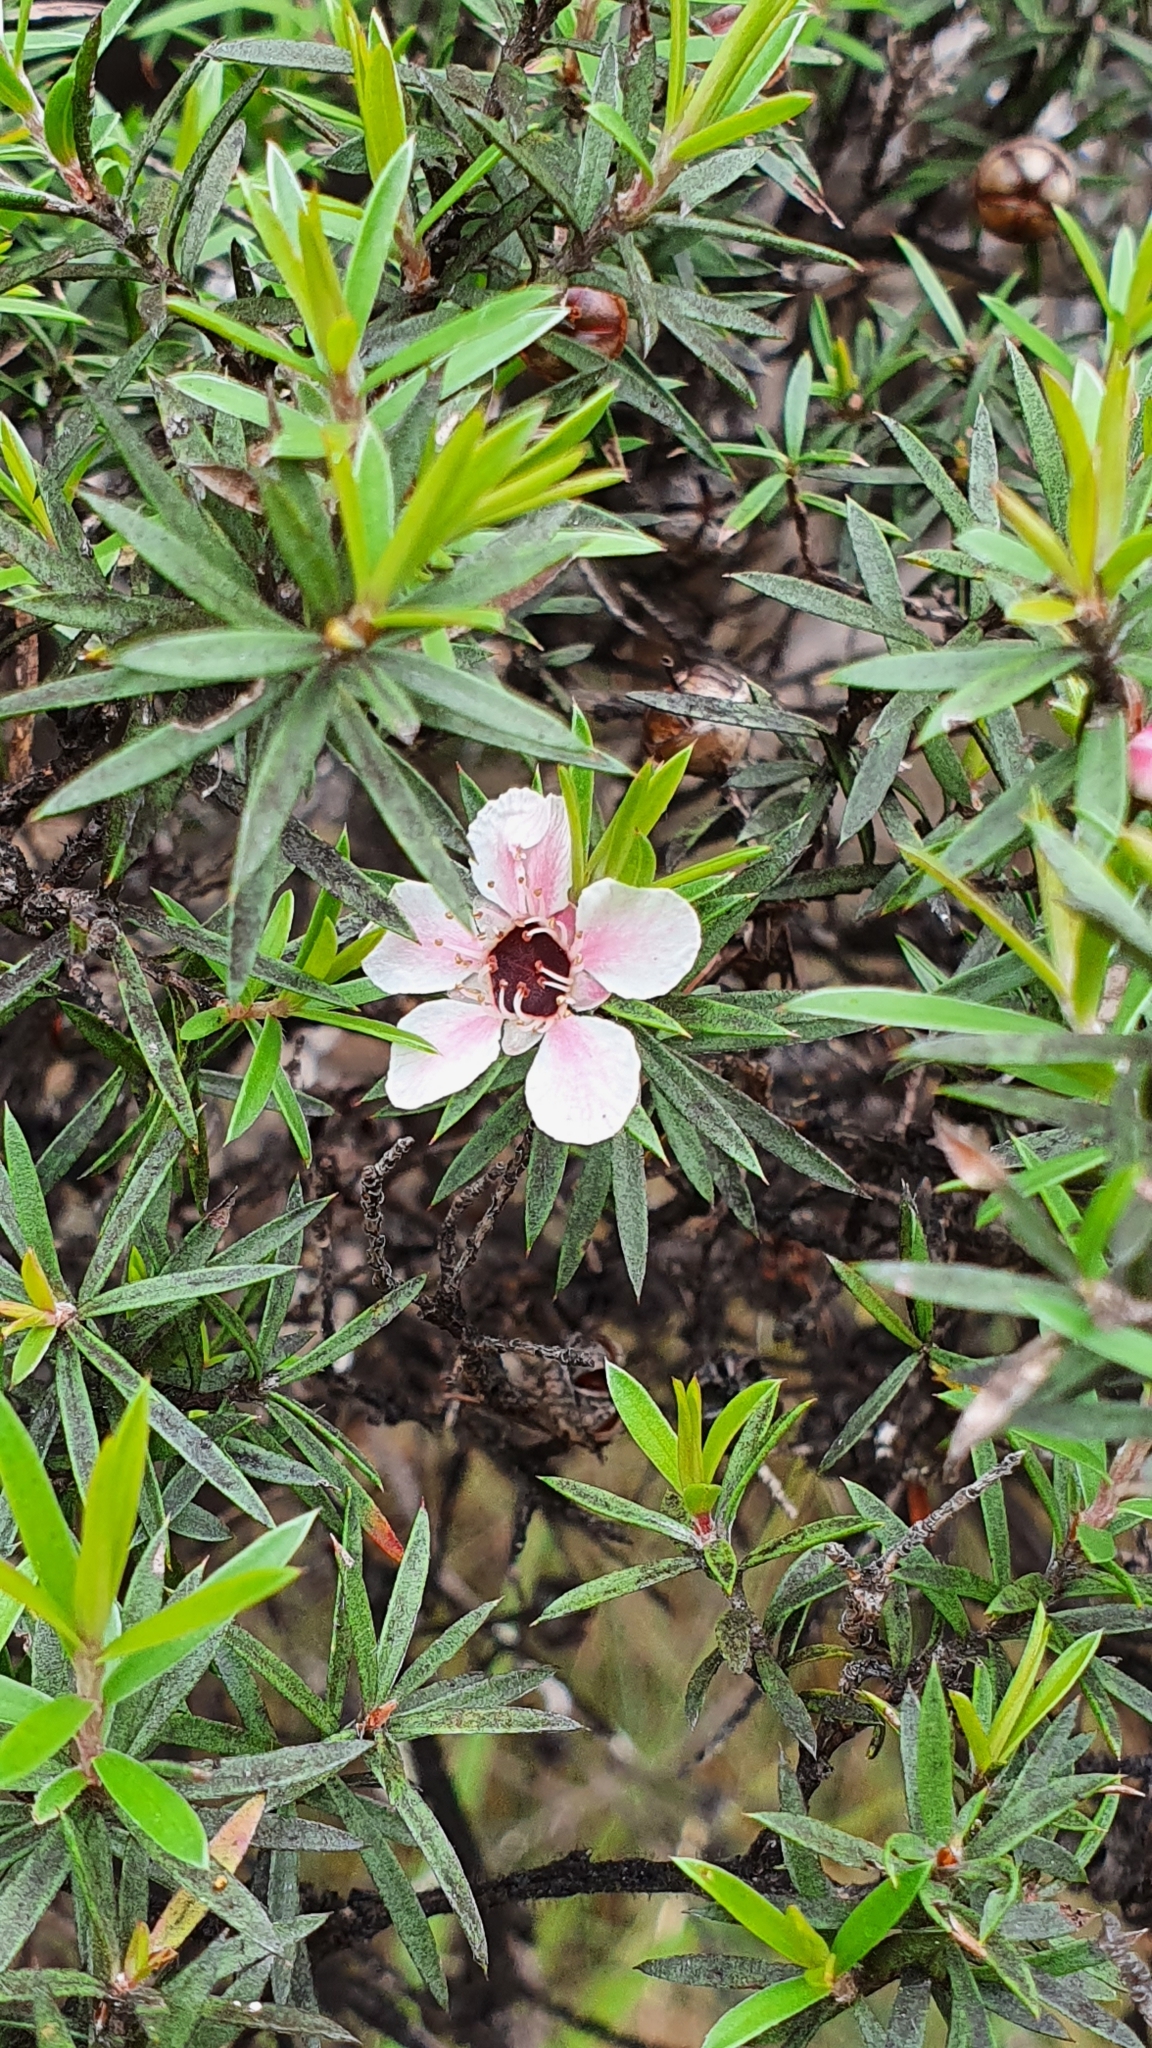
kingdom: Plantae
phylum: Tracheophyta
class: Magnoliopsida
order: Myrtales
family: Myrtaceae
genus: Leptospermum
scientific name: Leptospermum scoparium
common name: Broom tea-tree
